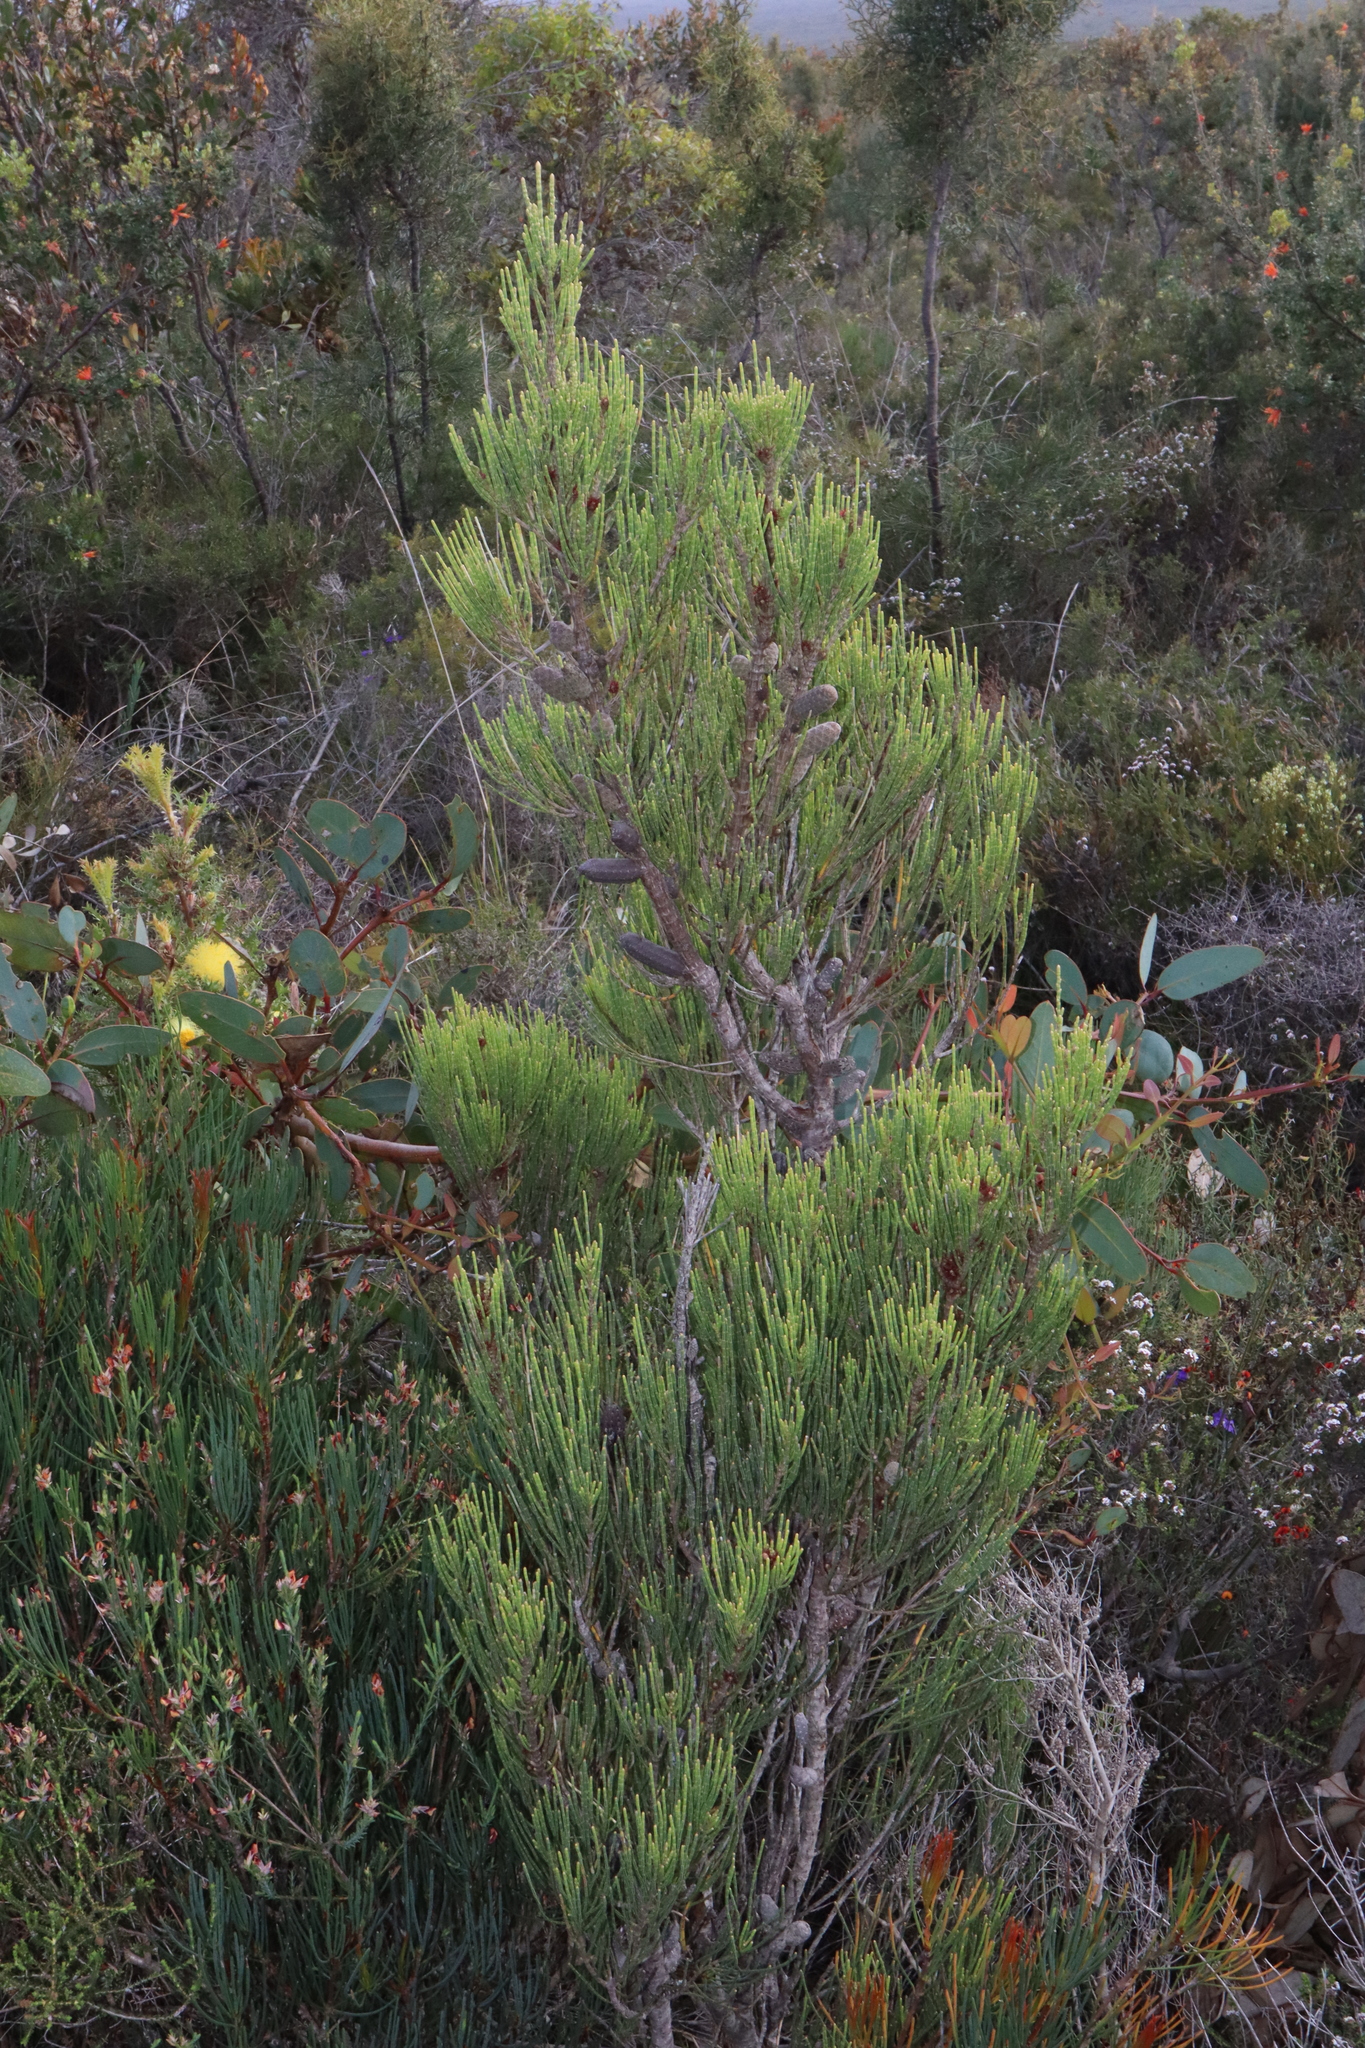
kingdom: Plantae
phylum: Tracheophyta
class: Magnoliopsida
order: Fagales
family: Casuarinaceae
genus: Allocasuarina
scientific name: Allocasuarina humilis
